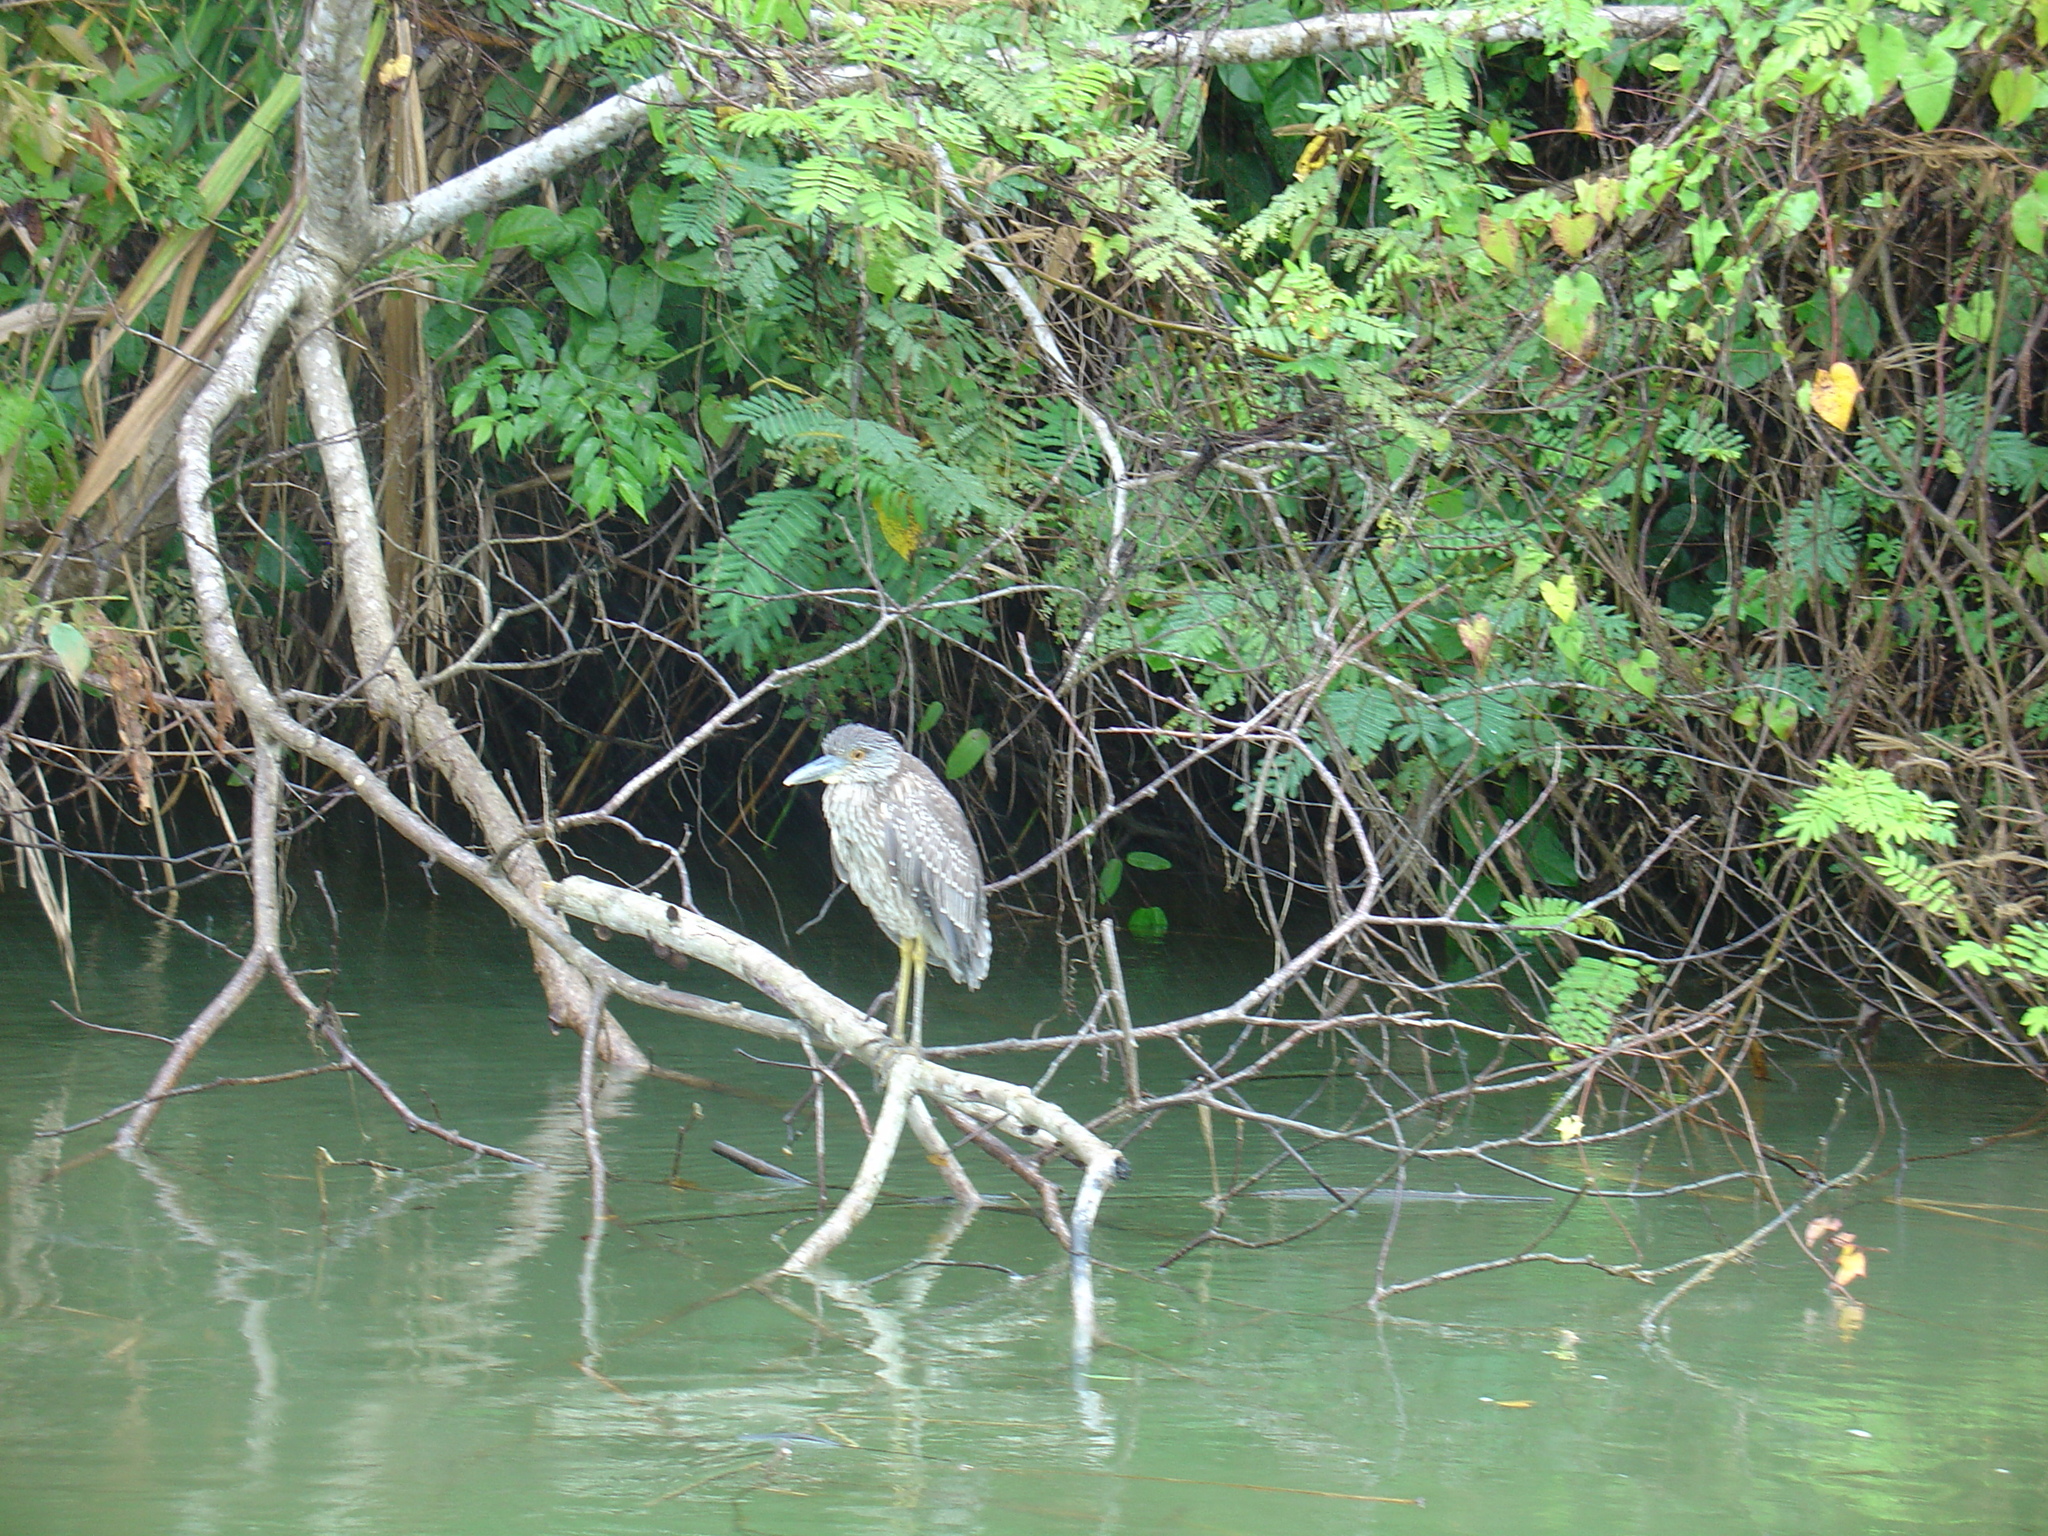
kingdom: Animalia
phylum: Chordata
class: Aves
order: Pelecaniformes
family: Ardeidae
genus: Nyctanassa
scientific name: Nyctanassa violacea
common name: Yellow-crowned night heron
